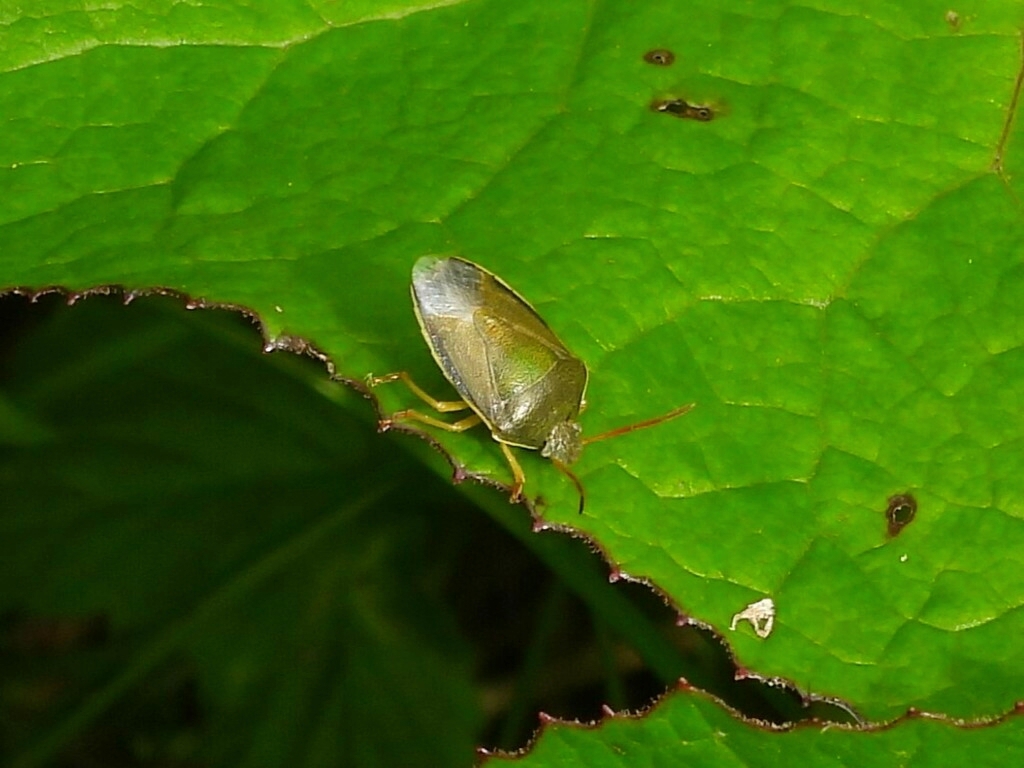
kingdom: Animalia
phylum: Arthropoda
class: Insecta
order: Hemiptera
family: Pentatomidae
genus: Piezodorus
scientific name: Piezodorus lituratus
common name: Stink bug
